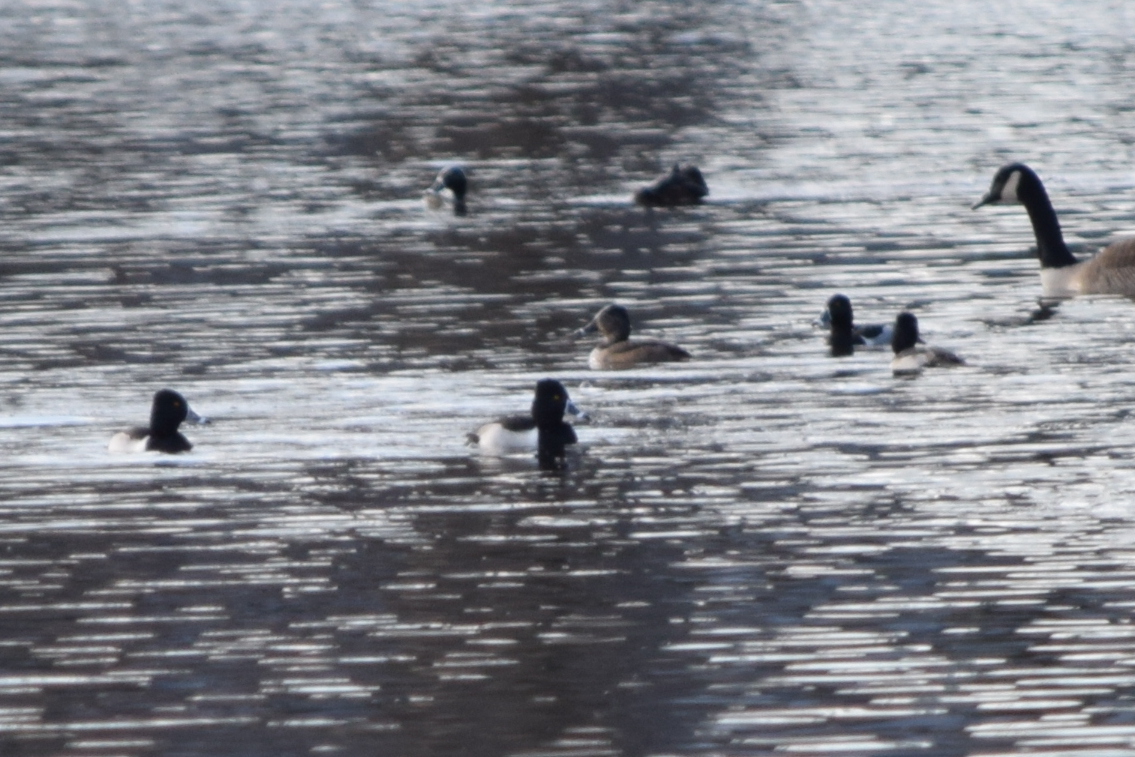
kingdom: Animalia
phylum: Chordata
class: Aves
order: Anseriformes
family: Anatidae
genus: Aythya
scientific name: Aythya collaris
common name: Ring-necked duck
